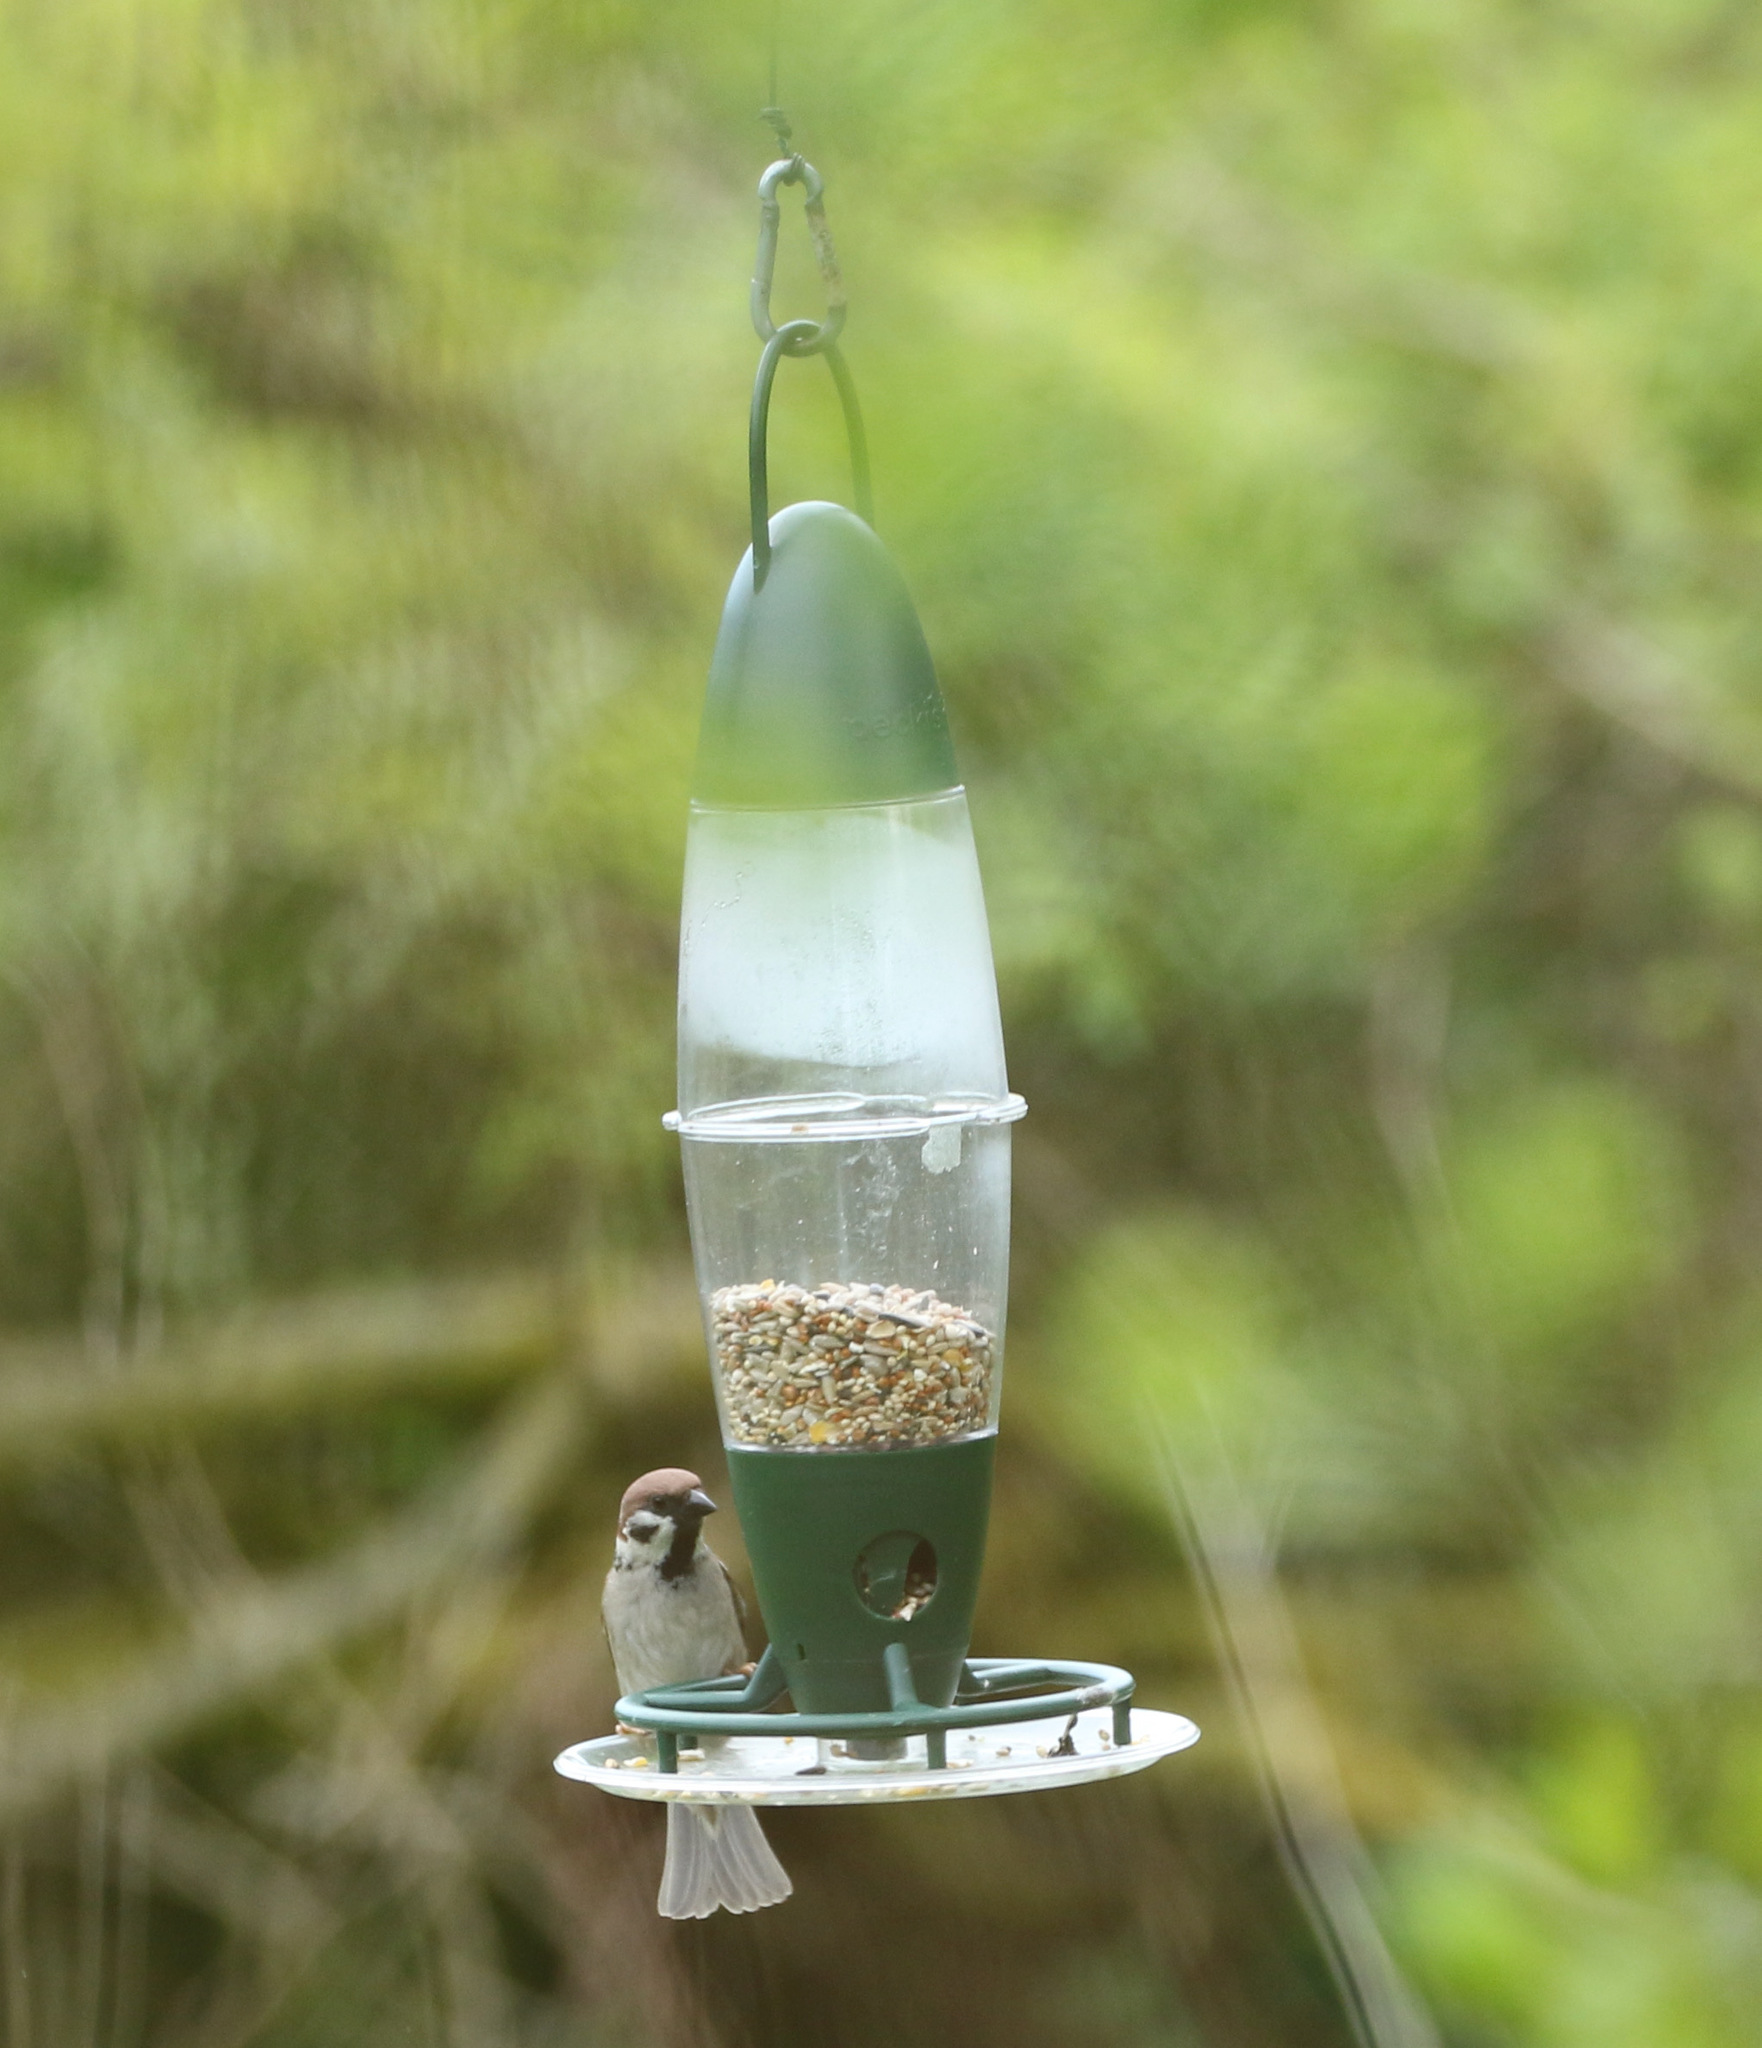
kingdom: Animalia
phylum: Chordata
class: Aves
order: Passeriformes
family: Passeridae
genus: Passer
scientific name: Passer montanus
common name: Eurasian tree sparrow
